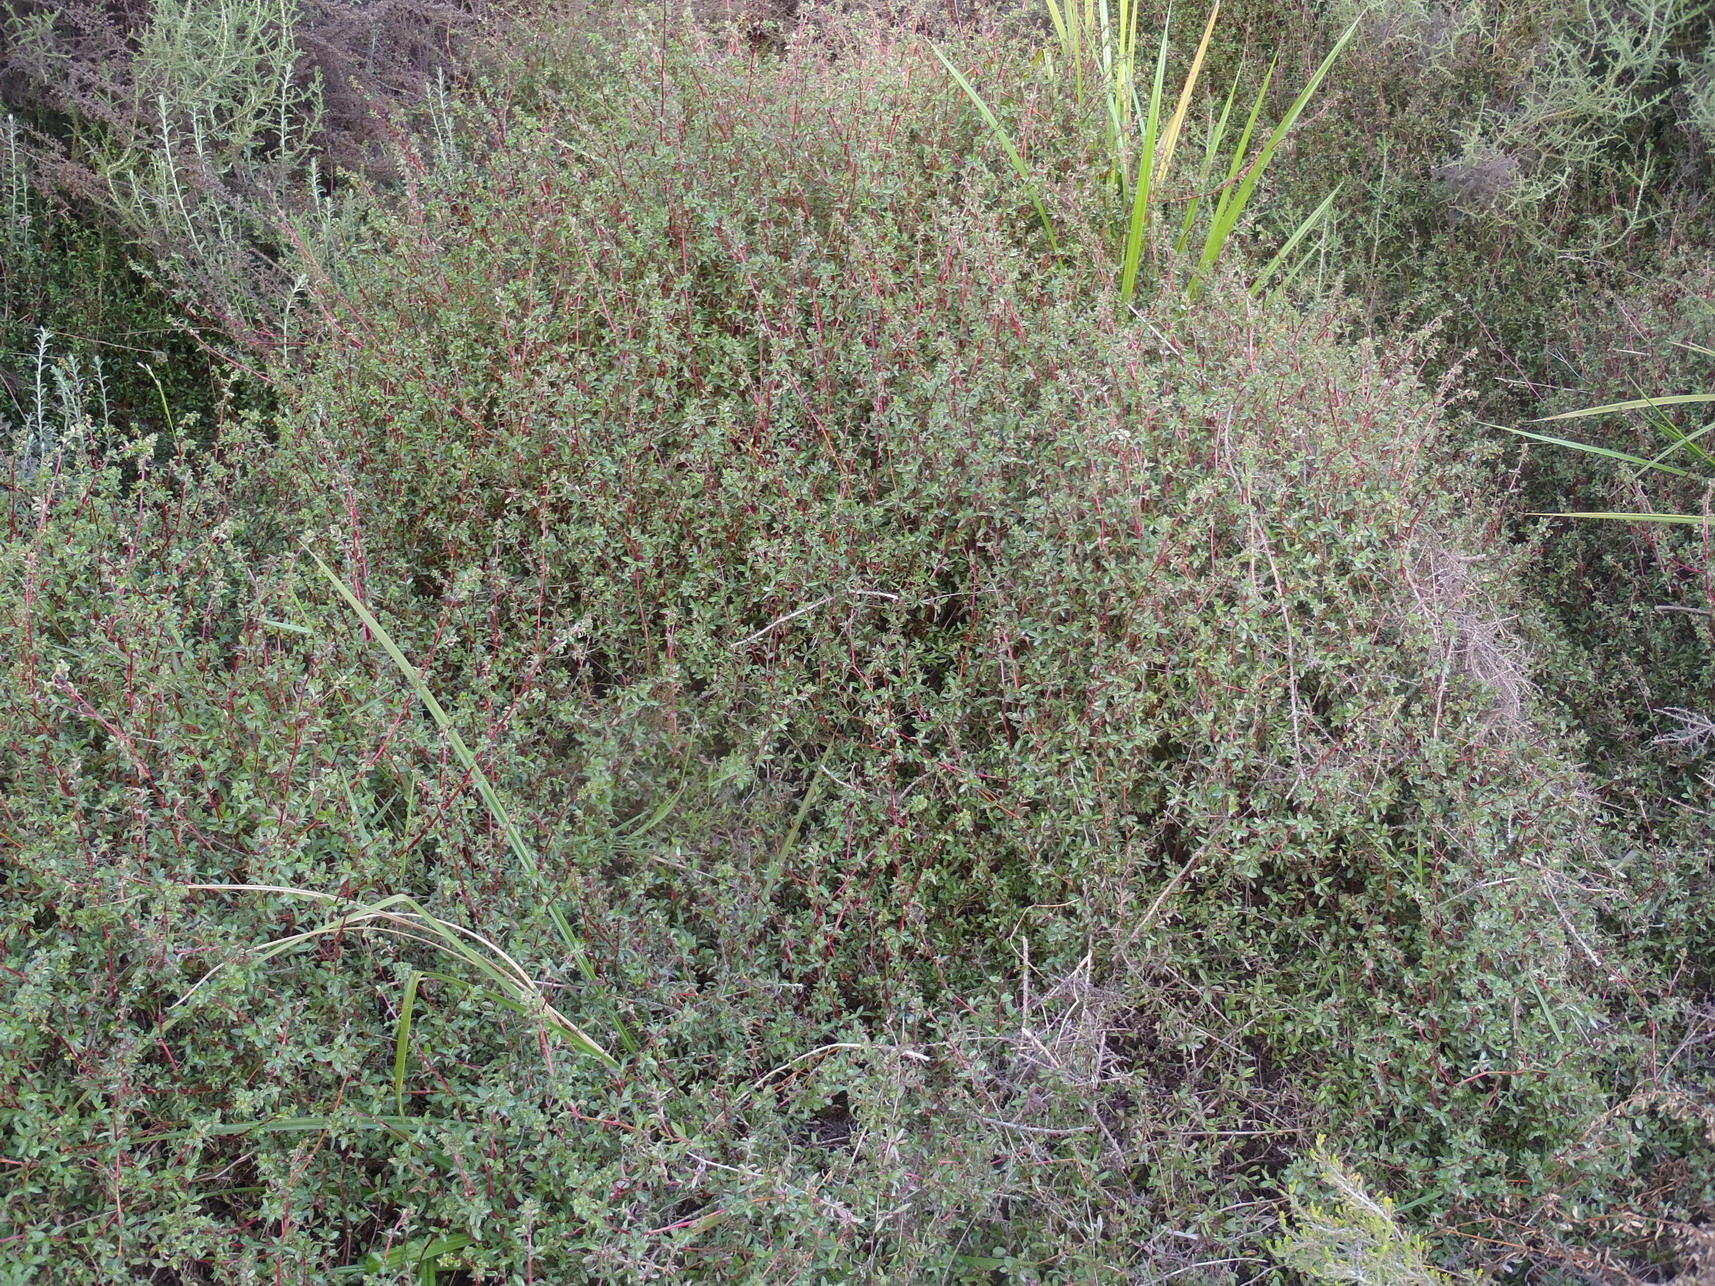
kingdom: Plantae
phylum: Tracheophyta
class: Magnoliopsida
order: Rosales
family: Rosaceae
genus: Cliffortia
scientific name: Cliffortia ferruginea
